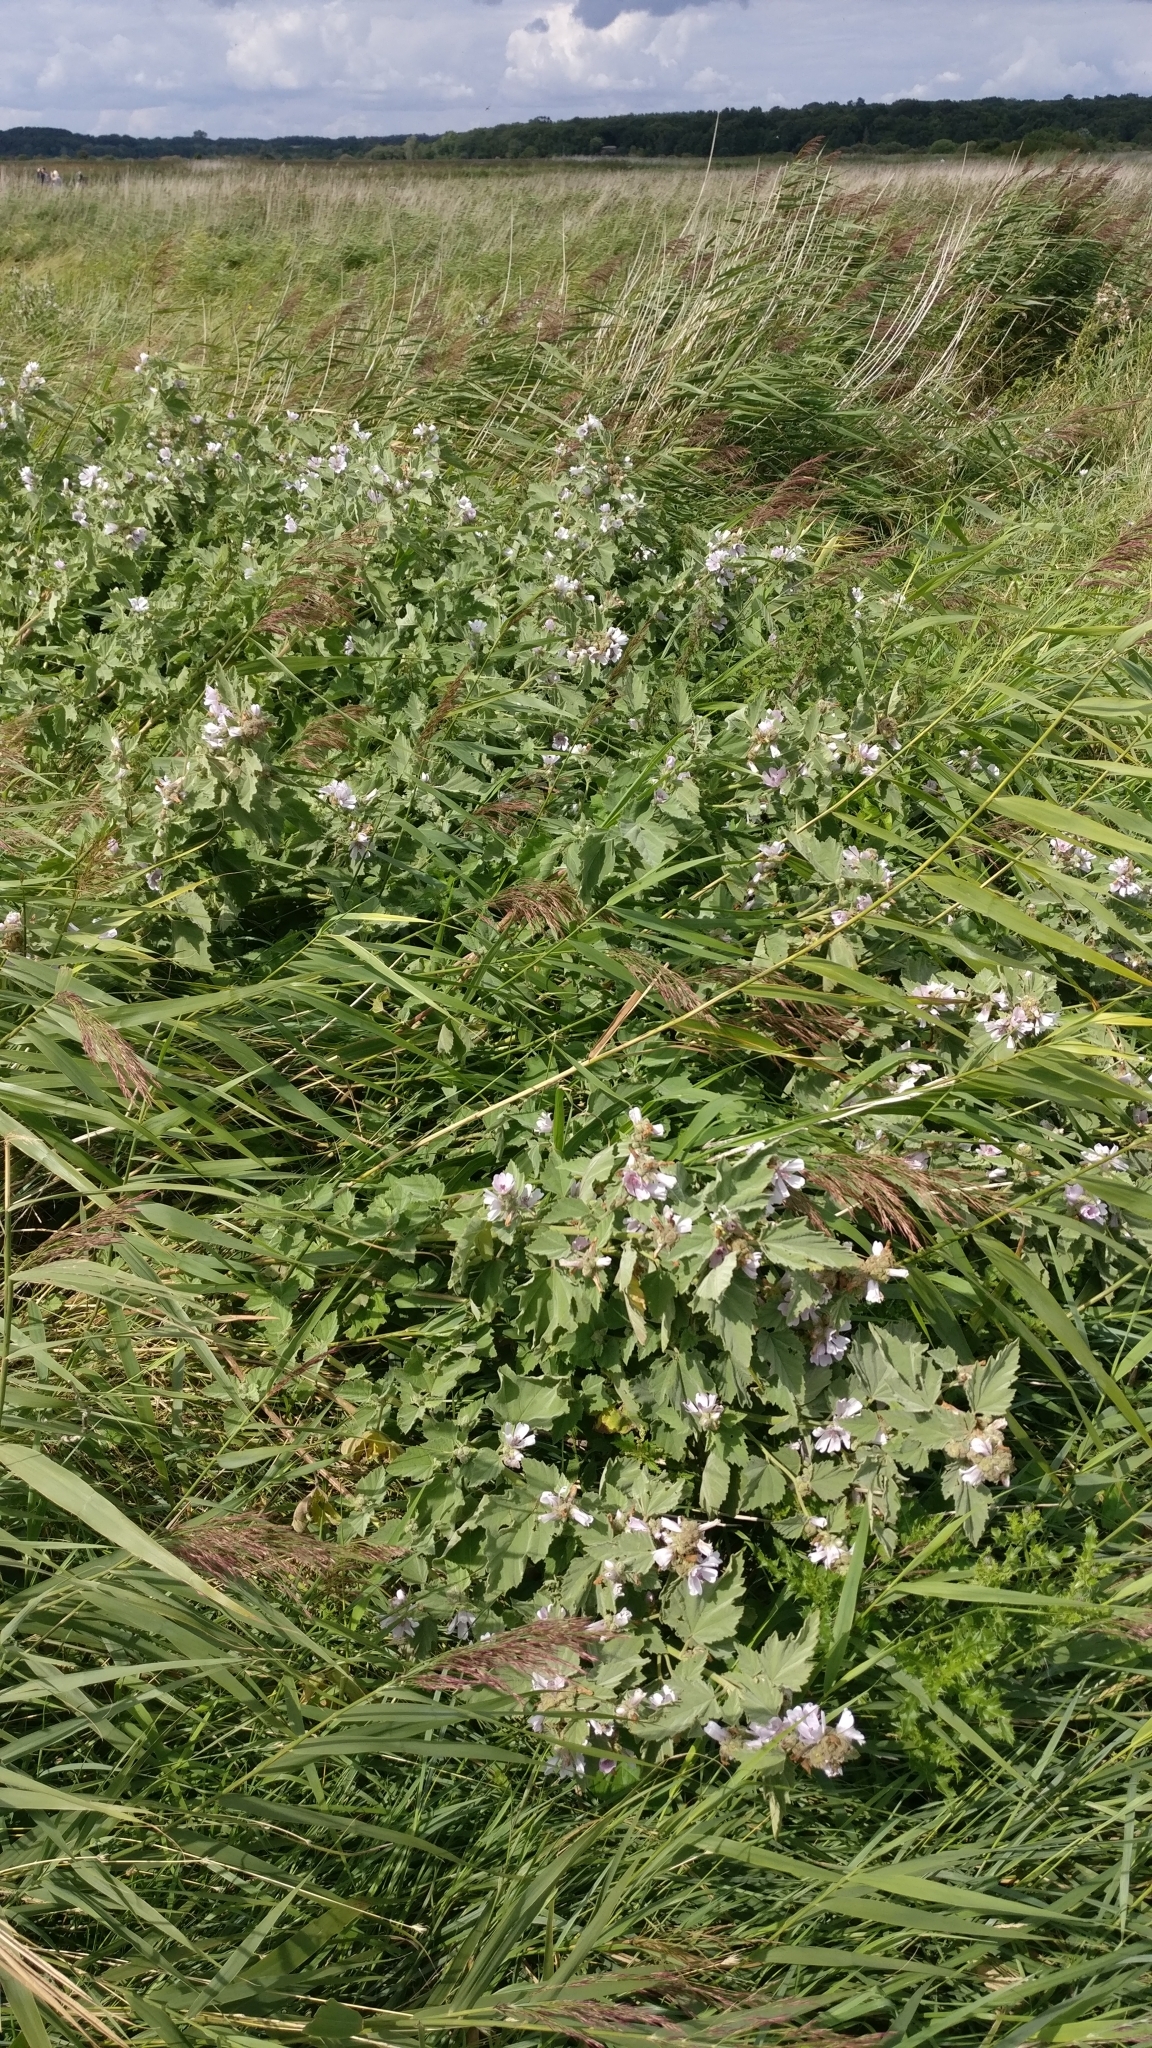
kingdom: Plantae
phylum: Tracheophyta
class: Magnoliopsida
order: Malvales
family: Malvaceae
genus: Althaea
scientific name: Althaea officinalis
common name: Marsh-mallow
